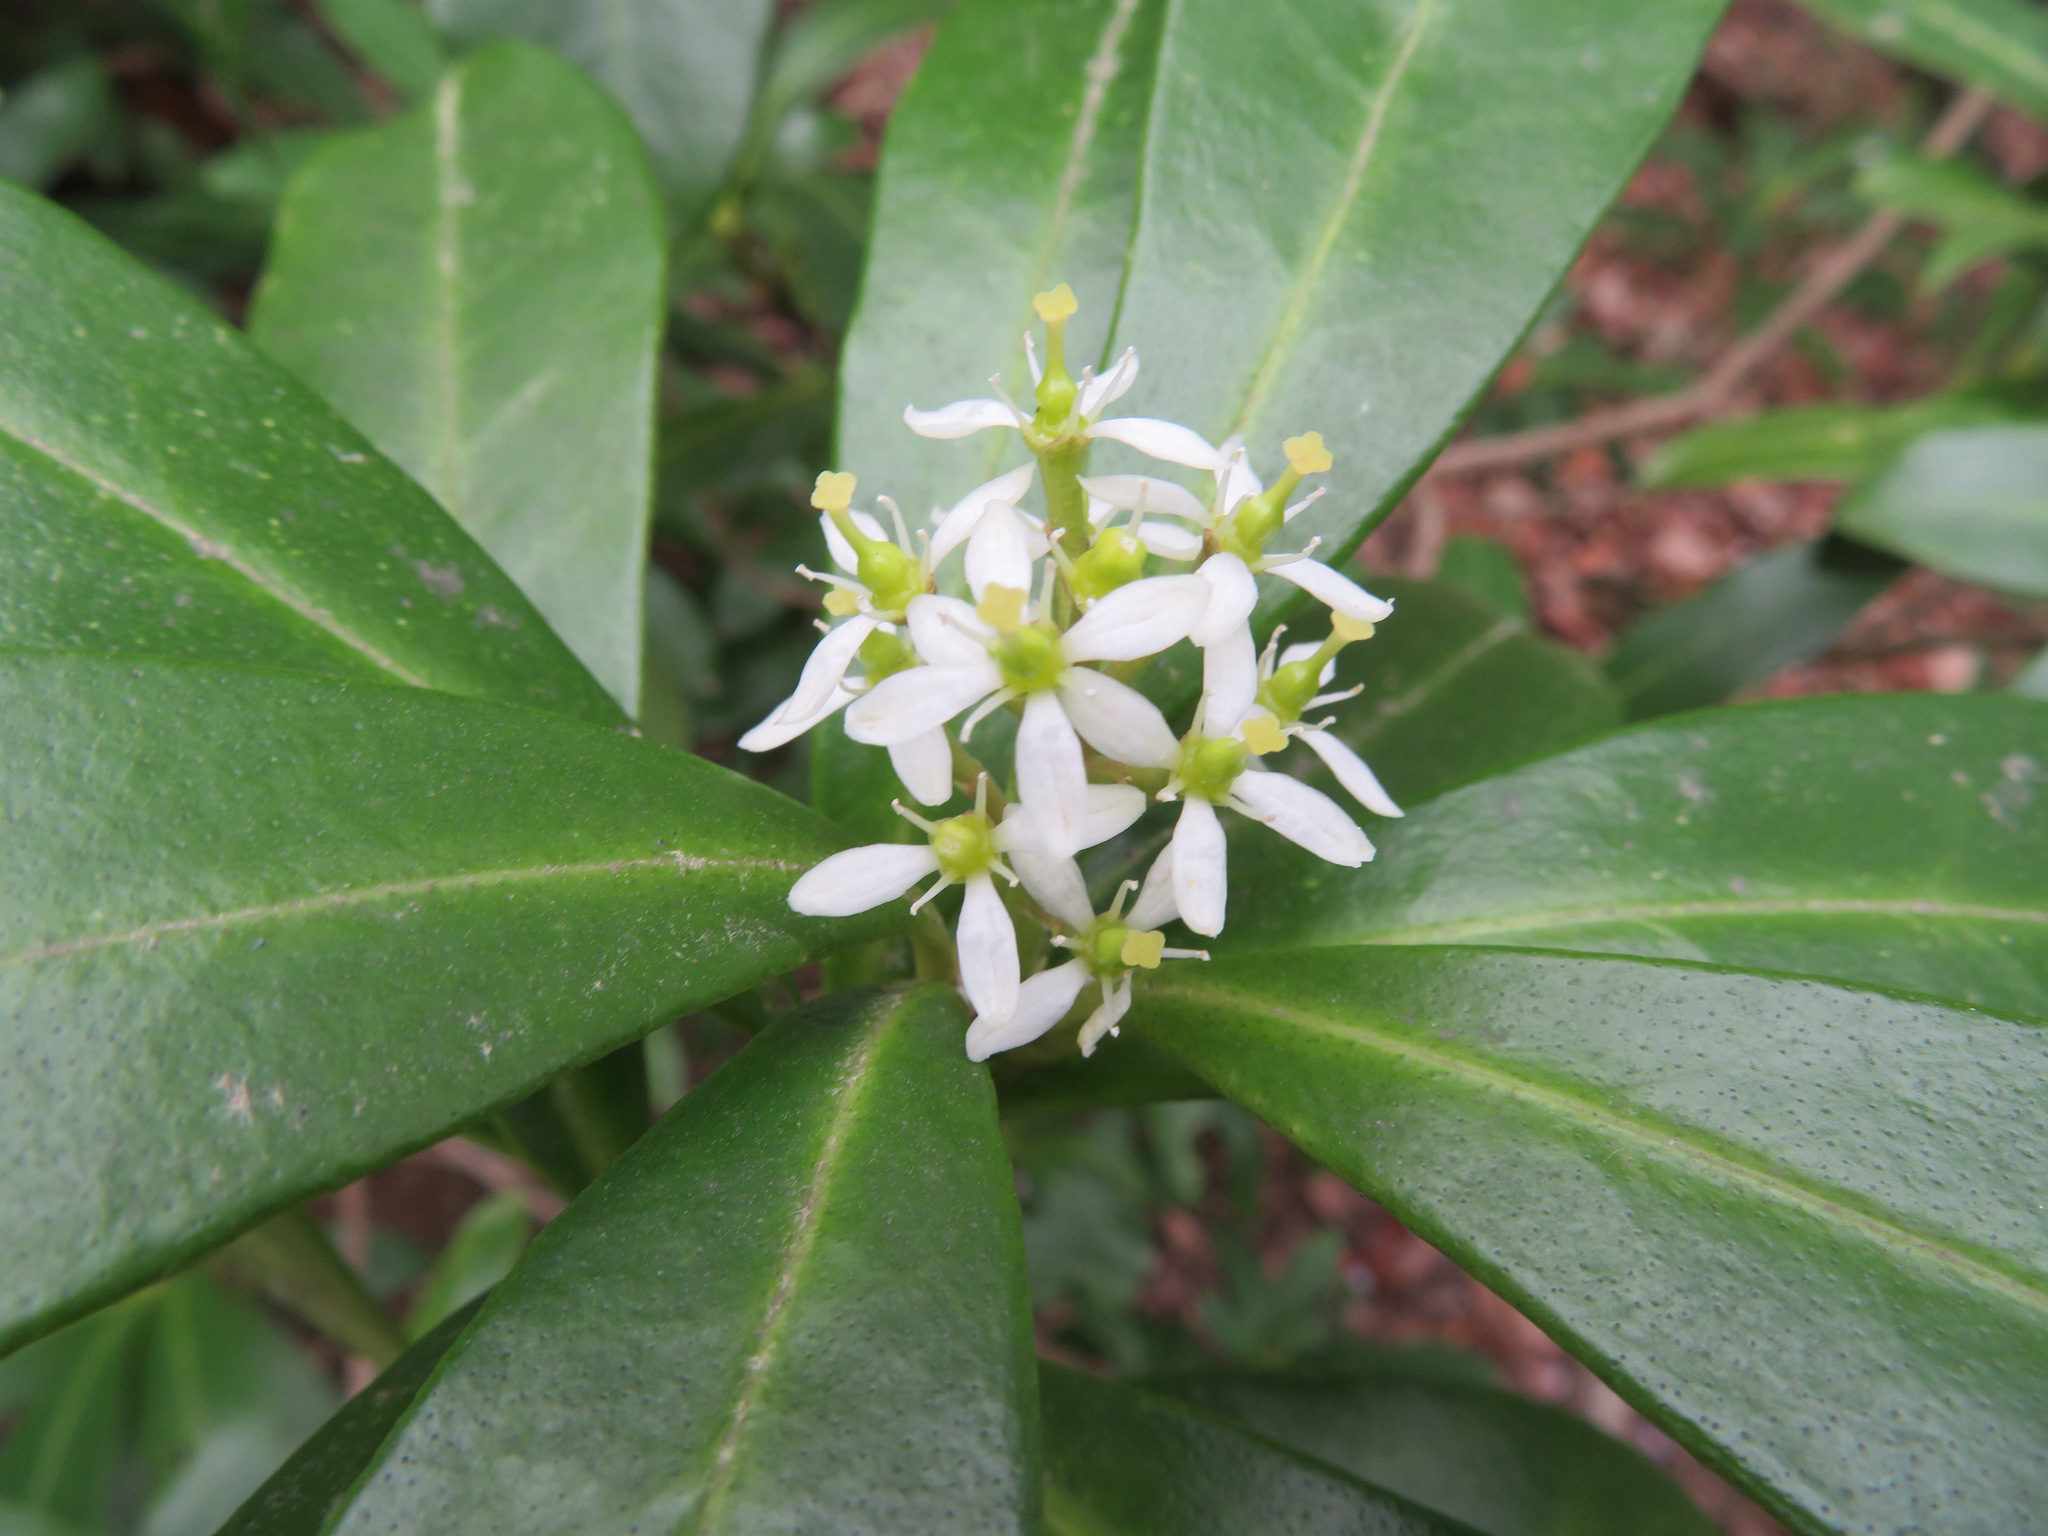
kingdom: Plantae
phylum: Tracheophyta
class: Magnoliopsida
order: Sapindales
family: Rutaceae
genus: Skimmia
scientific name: Skimmia japonica
